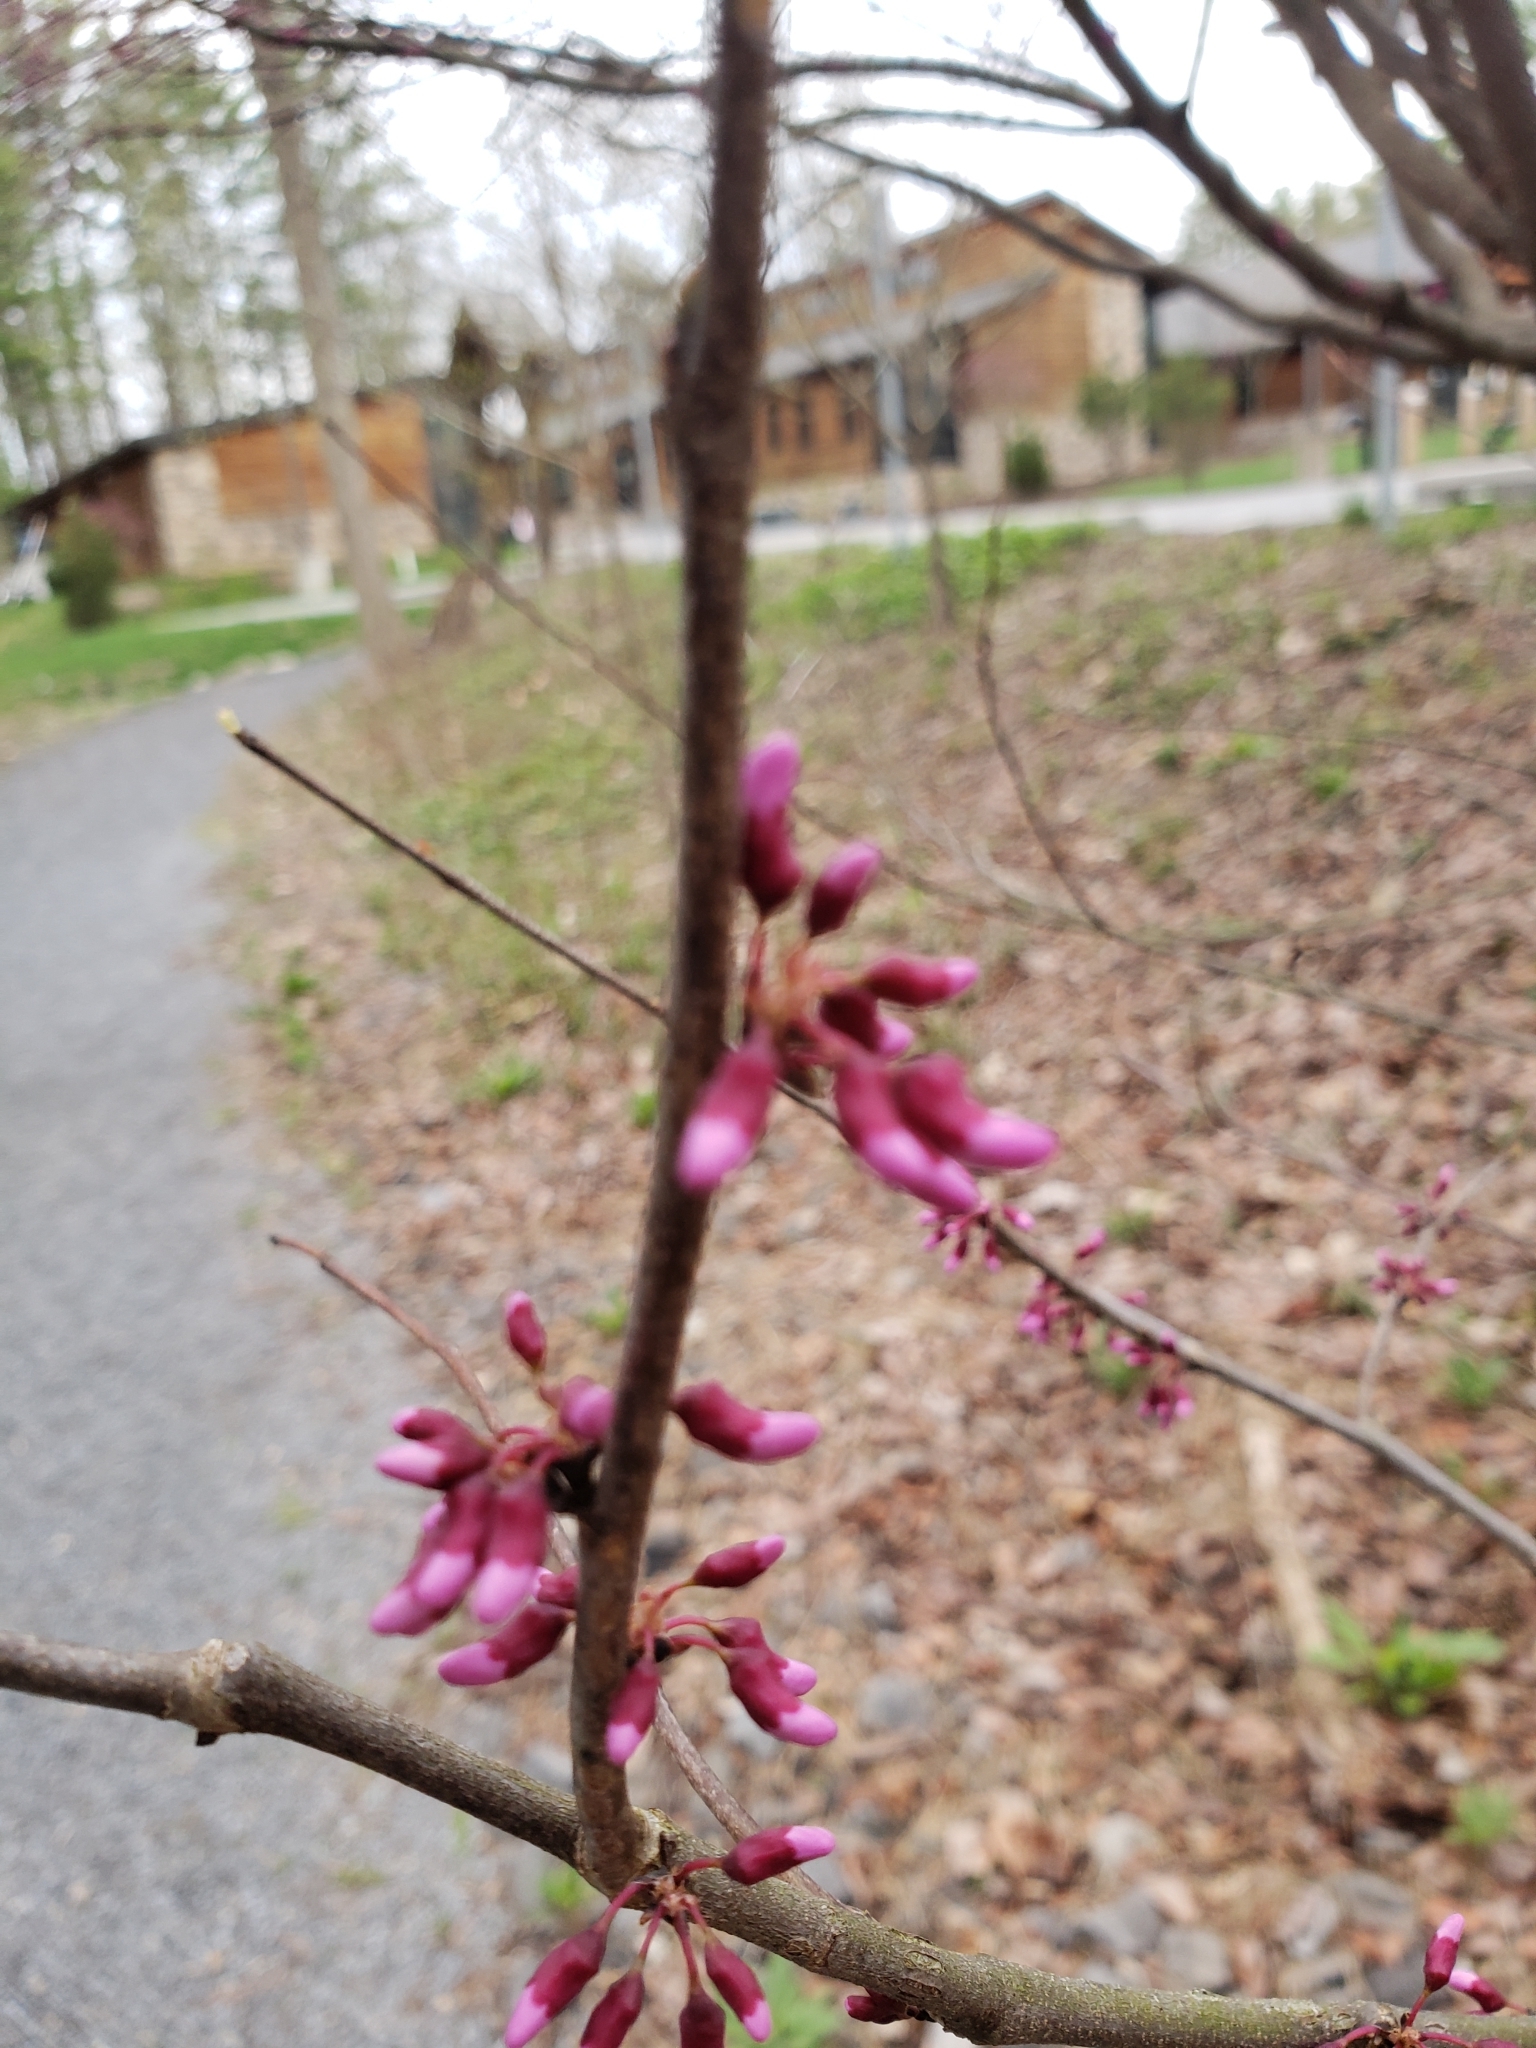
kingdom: Plantae
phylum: Tracheophyta
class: Magnoliopsida
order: Fabales
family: Fabaceae
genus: Cercis
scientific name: Cercis canadensis
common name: Eastern redbud
